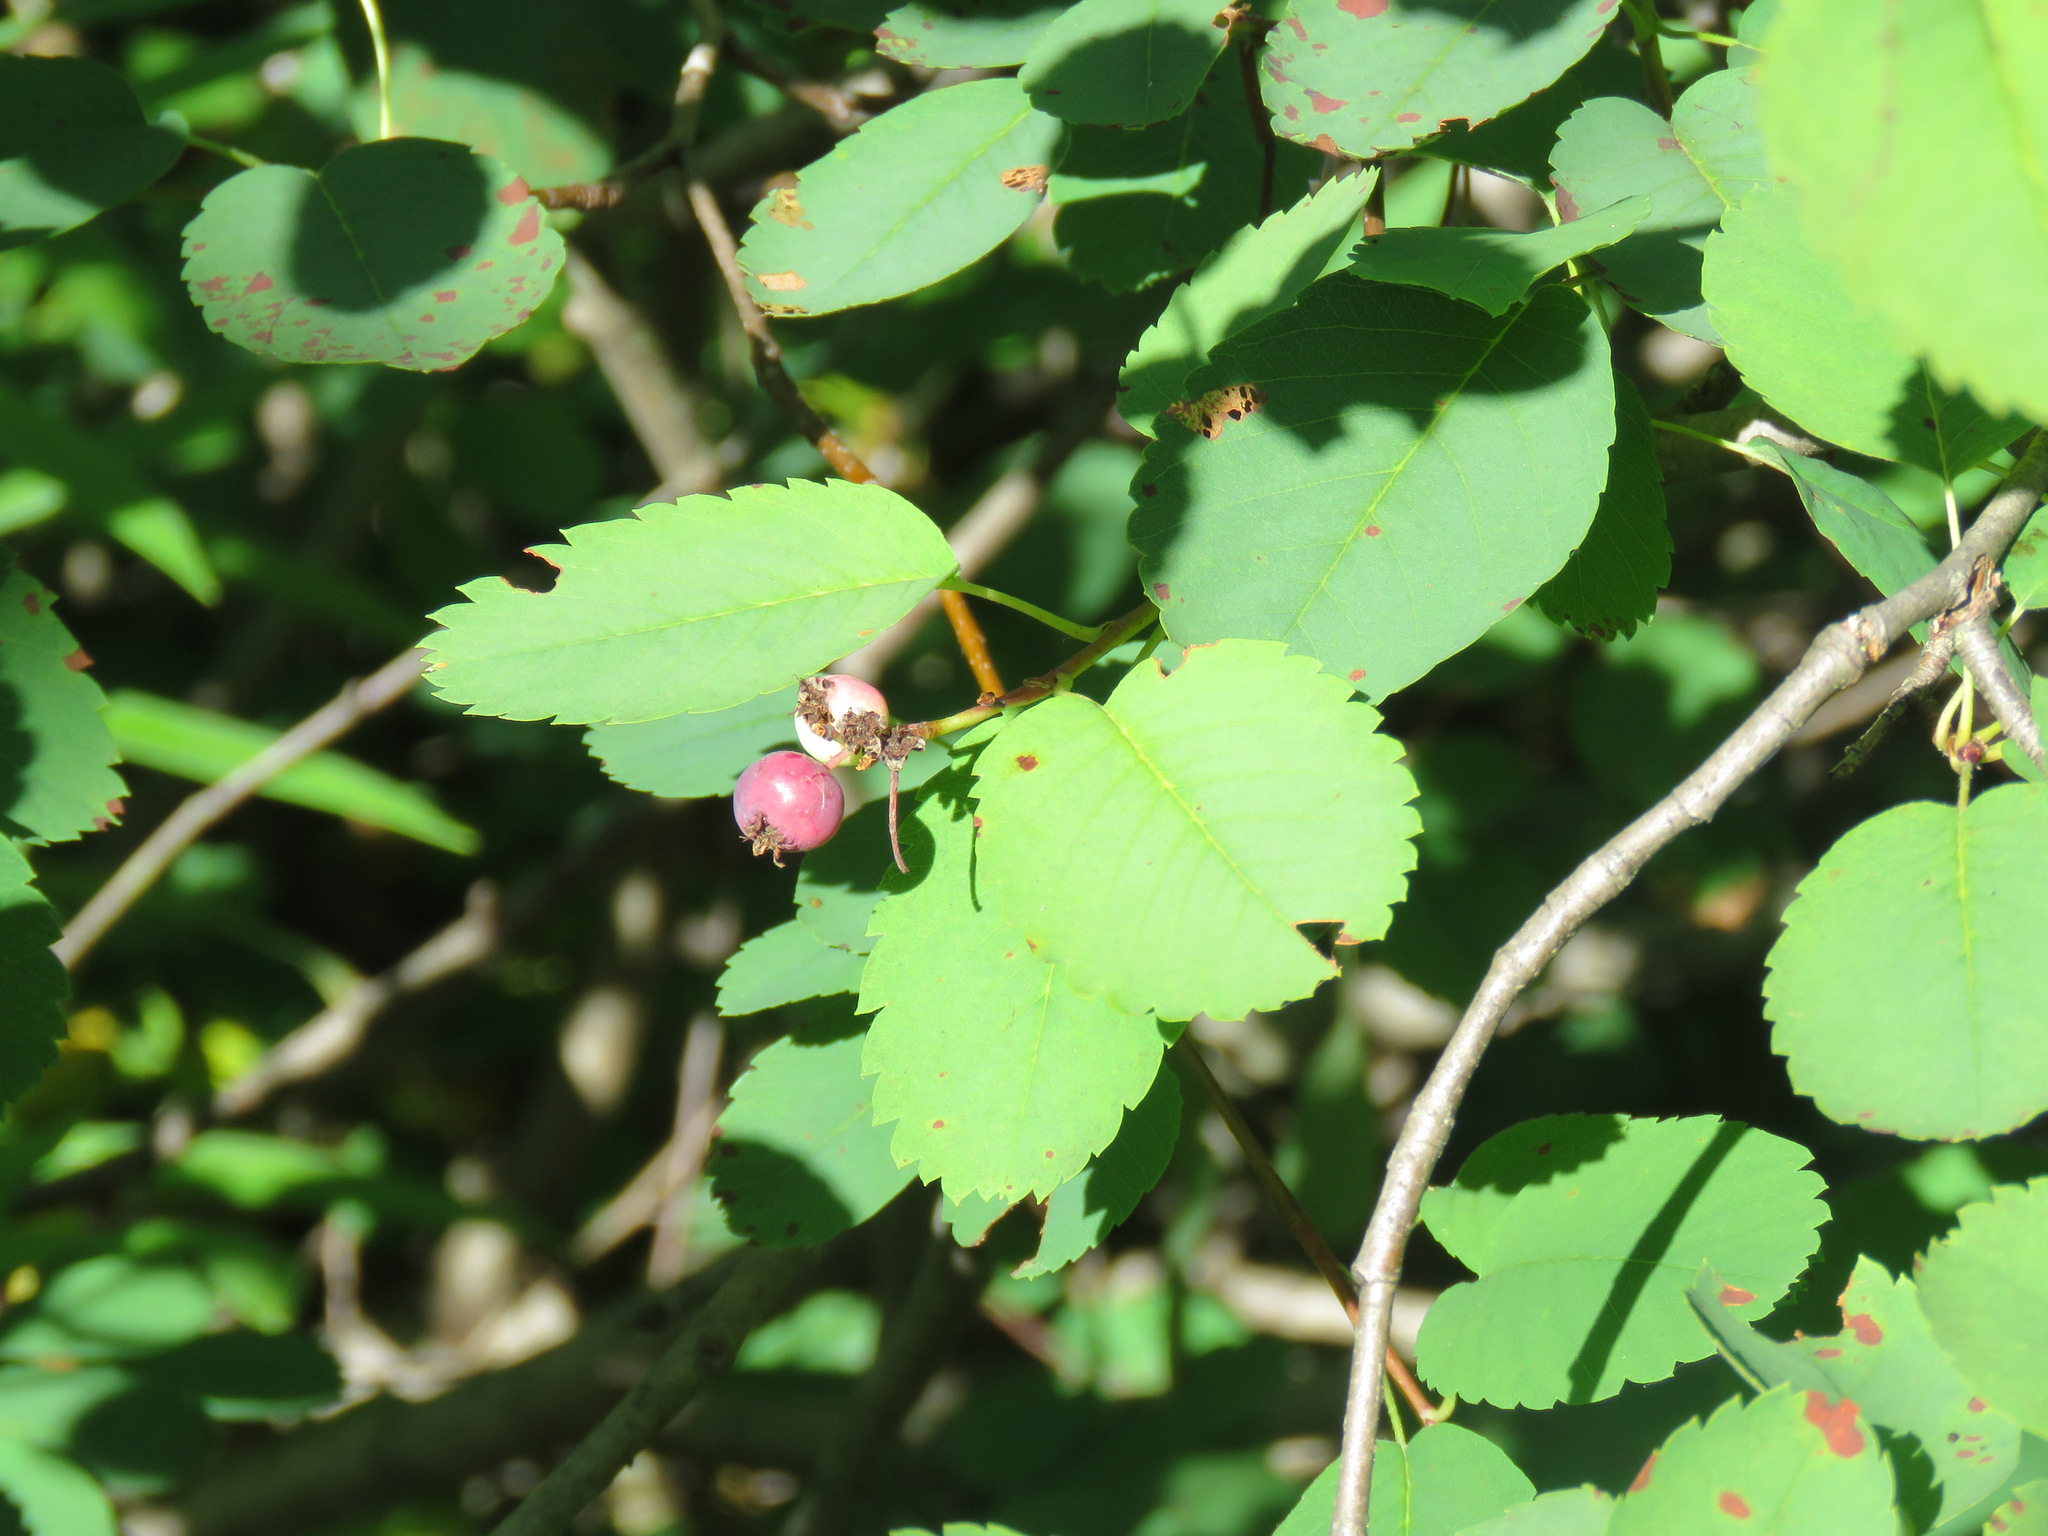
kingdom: Plantae
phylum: Tracheophyta
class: Magnoliopsida
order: Rosales
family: Rosaceae
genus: Amelanchier
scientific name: Amelanchier alnifolia
